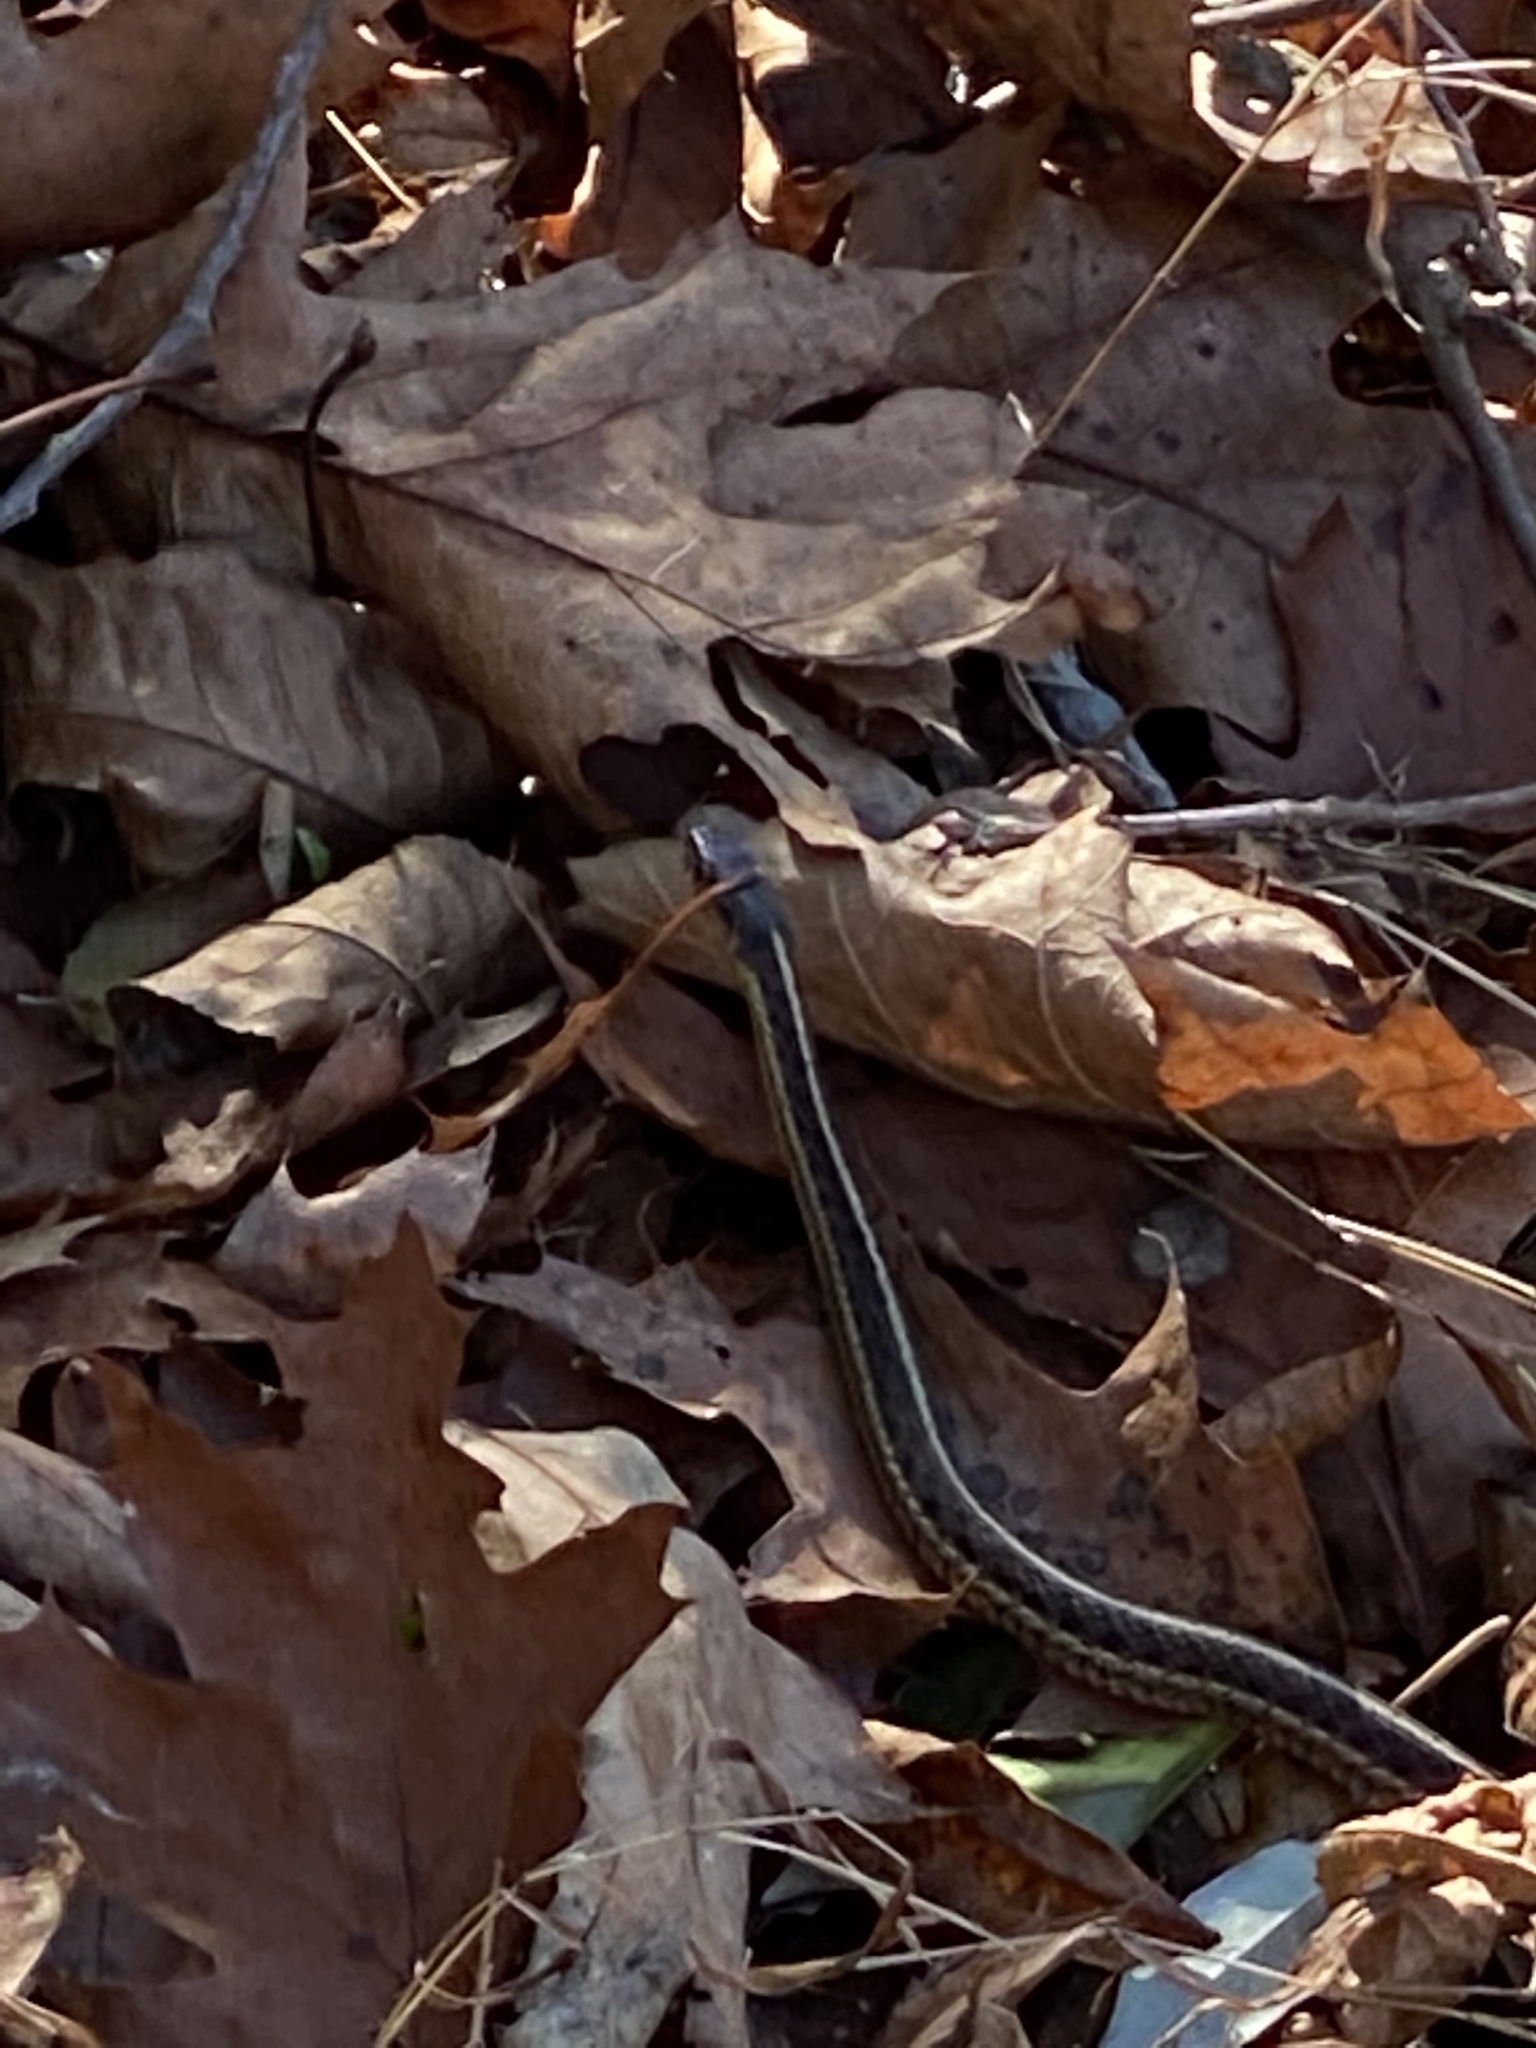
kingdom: Animalia
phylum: Chordata
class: Squamata
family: Colubridae
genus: Thamnophis
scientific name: Thamnophis sirtalis
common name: Common garter snake
